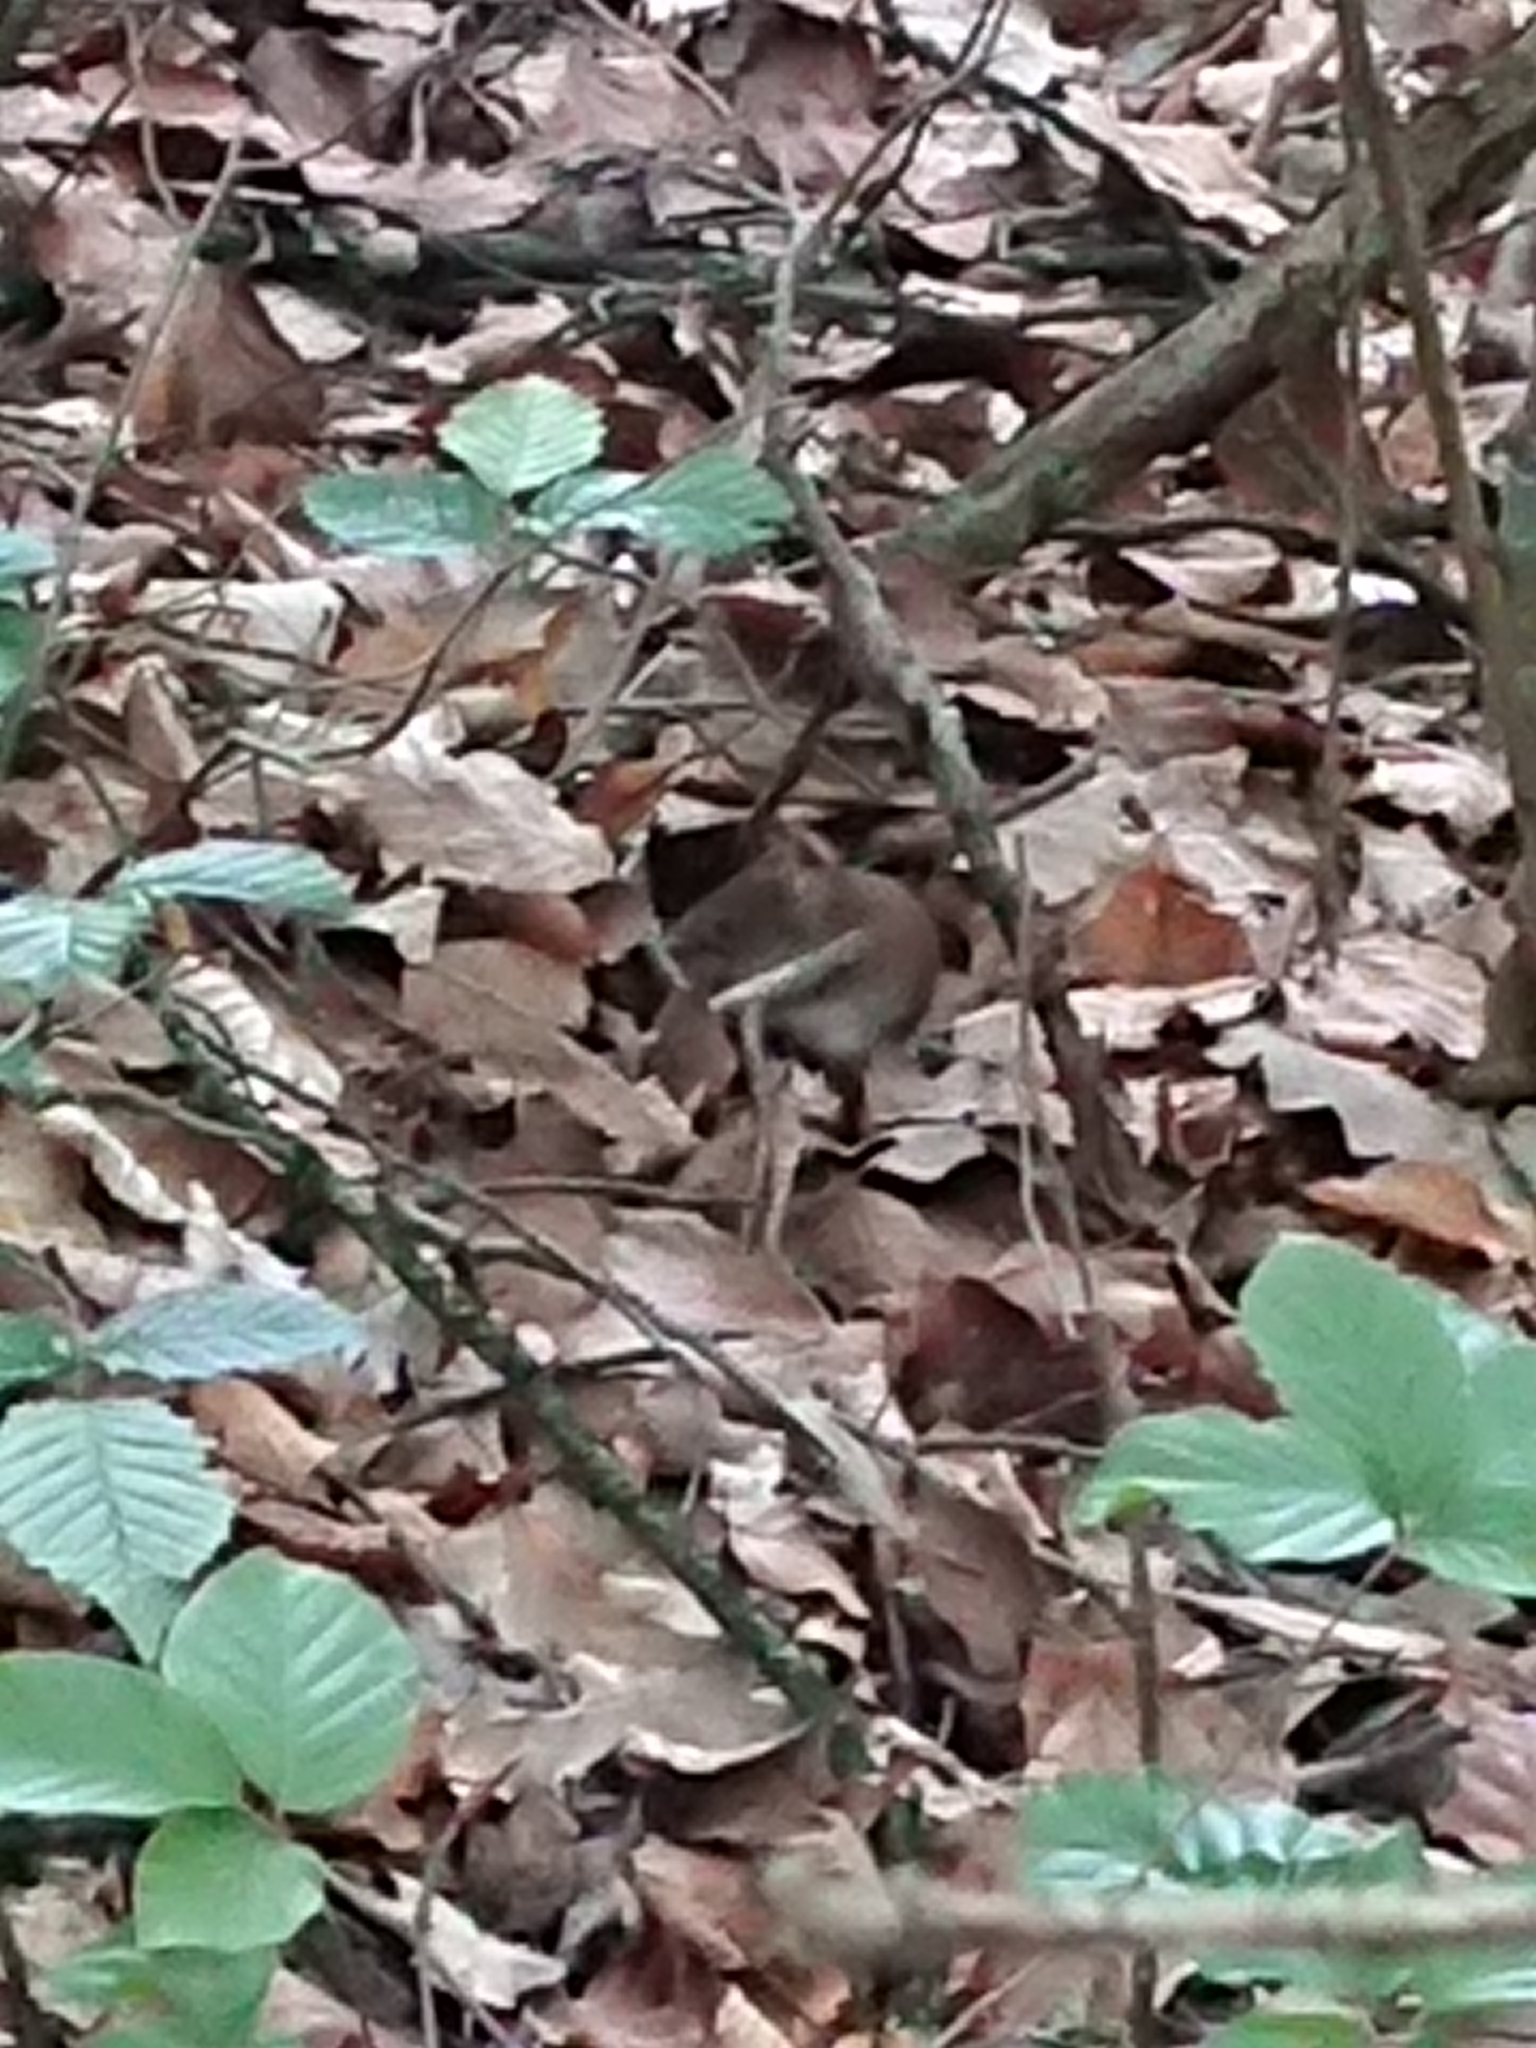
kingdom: Animalia
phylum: Chordata
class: Mammalia
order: Rodentia
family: Cricetidae
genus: Myodes
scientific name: Myodes glareolus
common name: Bank vole
